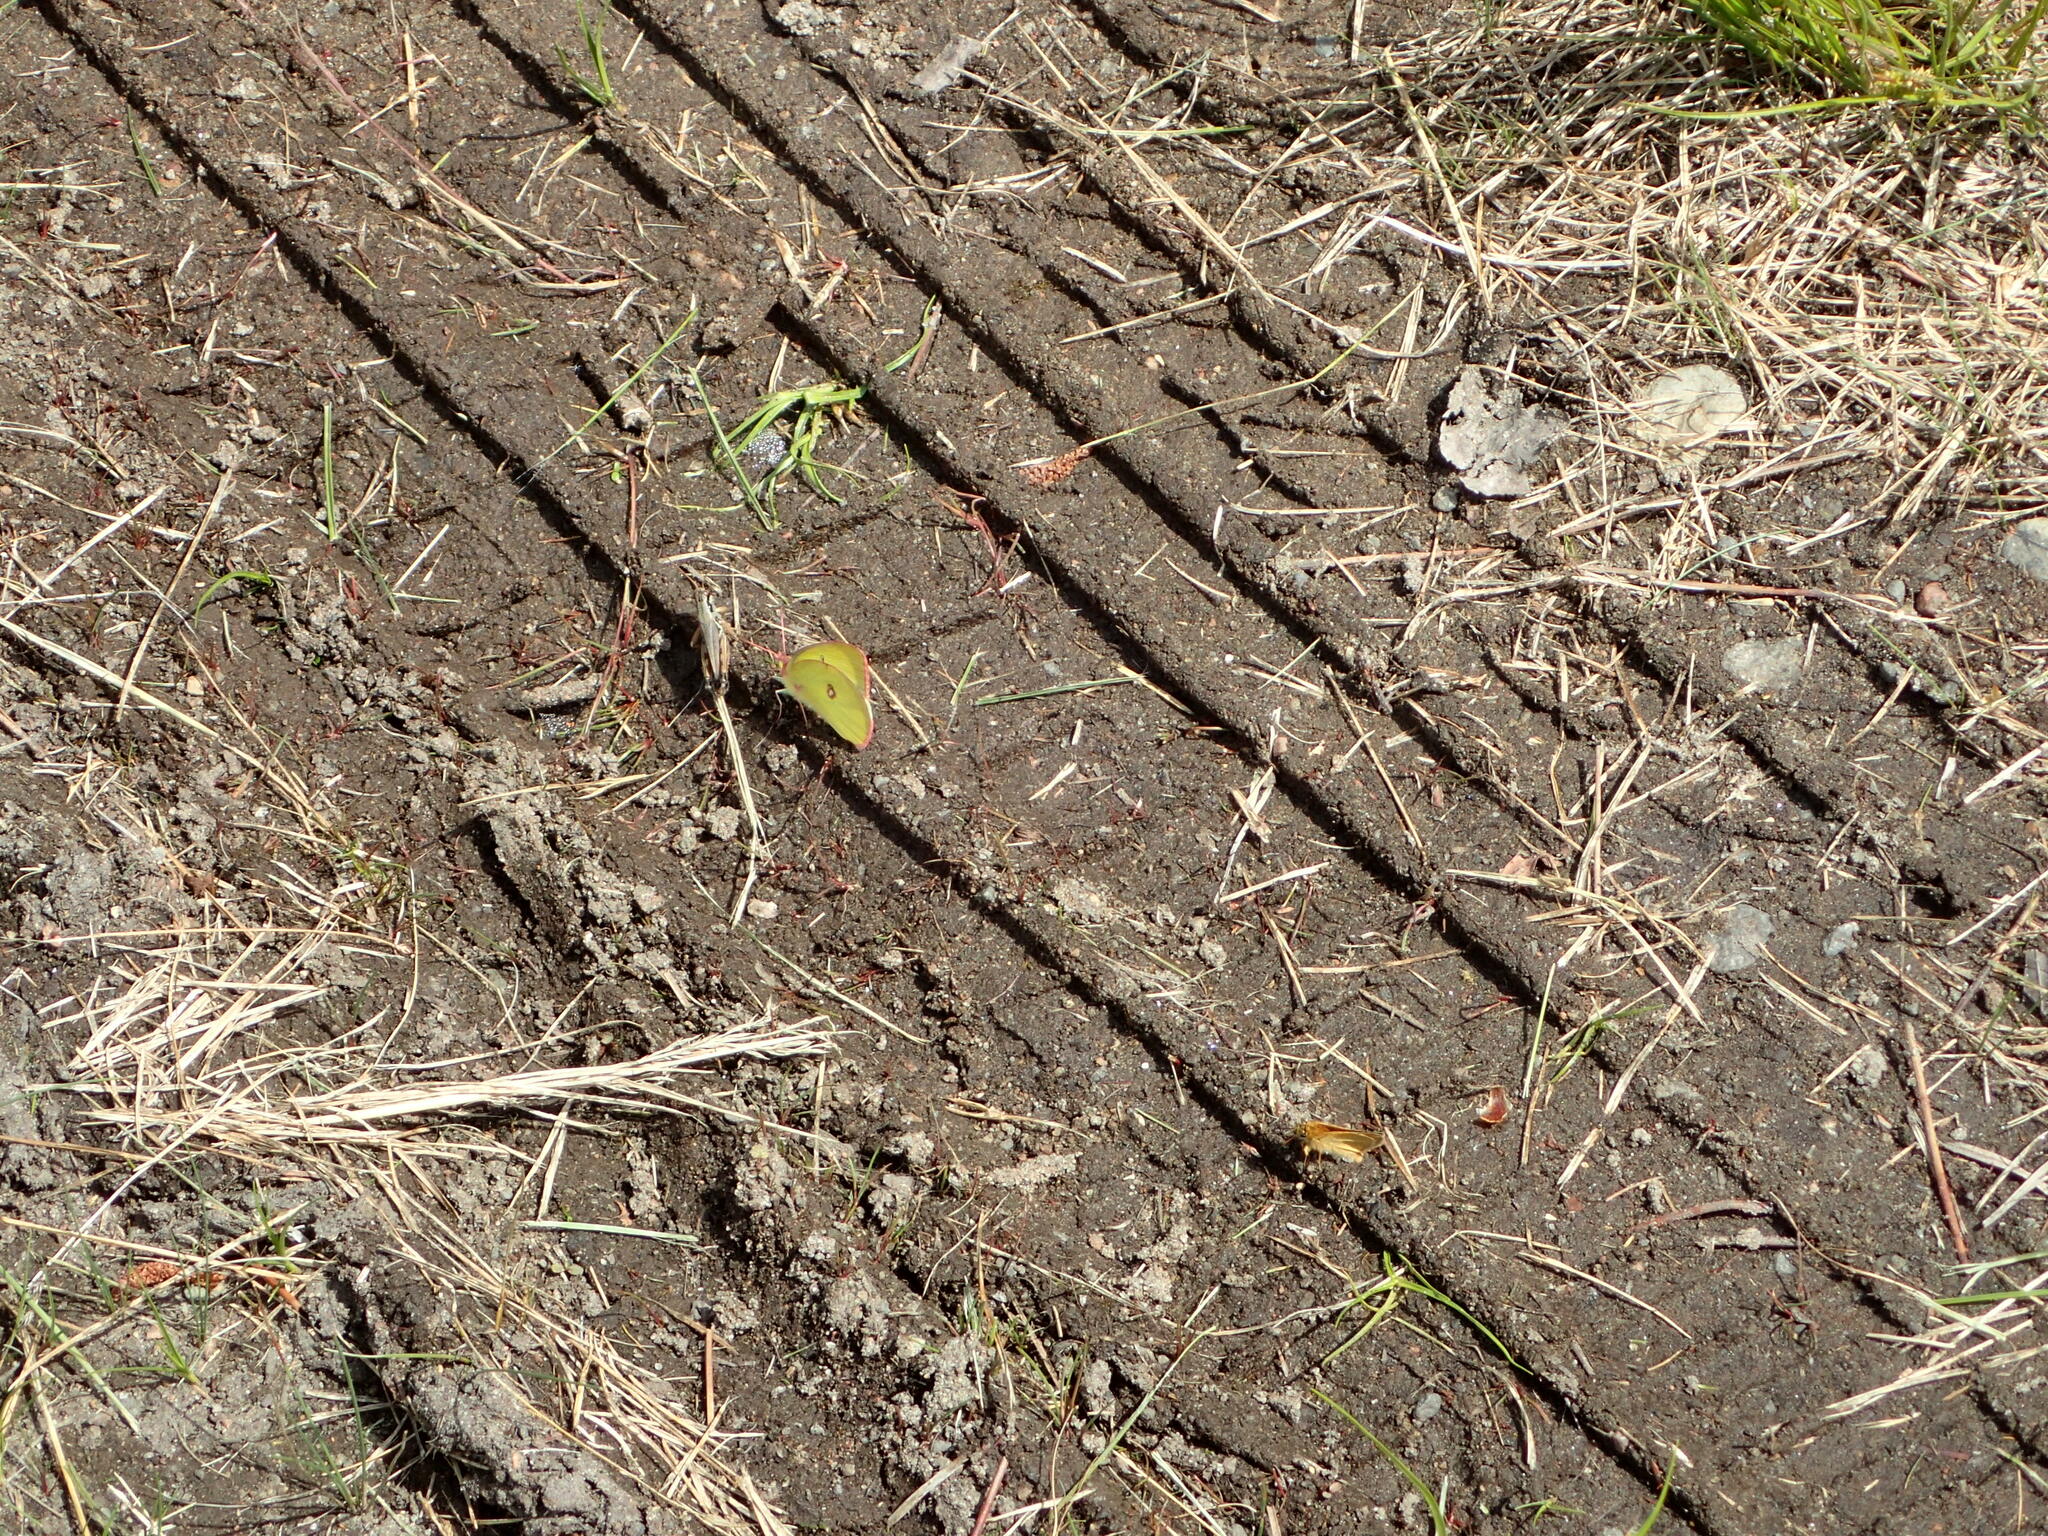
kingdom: Animalia
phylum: Arthropoda
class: Insecta
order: Lepidoptera
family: Pieridae
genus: Colias
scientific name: Colias interior
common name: Pink-edged sulphur
